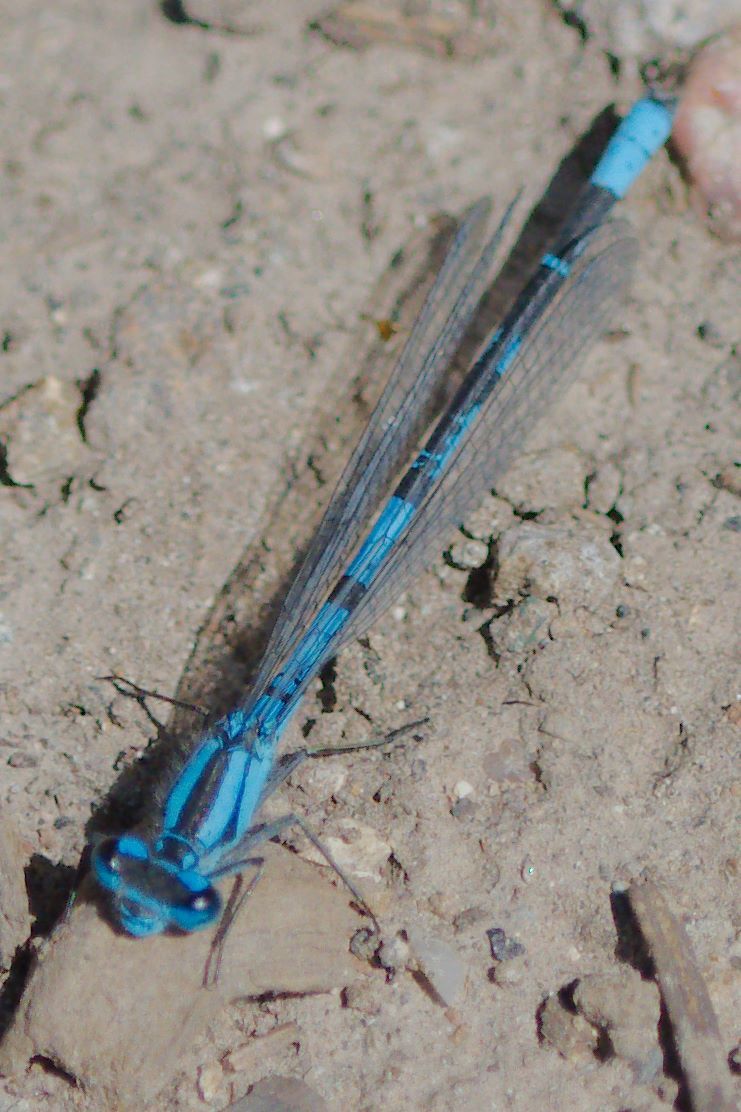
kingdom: Animalia
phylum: Arthropoda
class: Insecta
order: Odonata
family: Coenagrionidae
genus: Enallagma
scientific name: Enallagma boreale
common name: Boreal bluet
